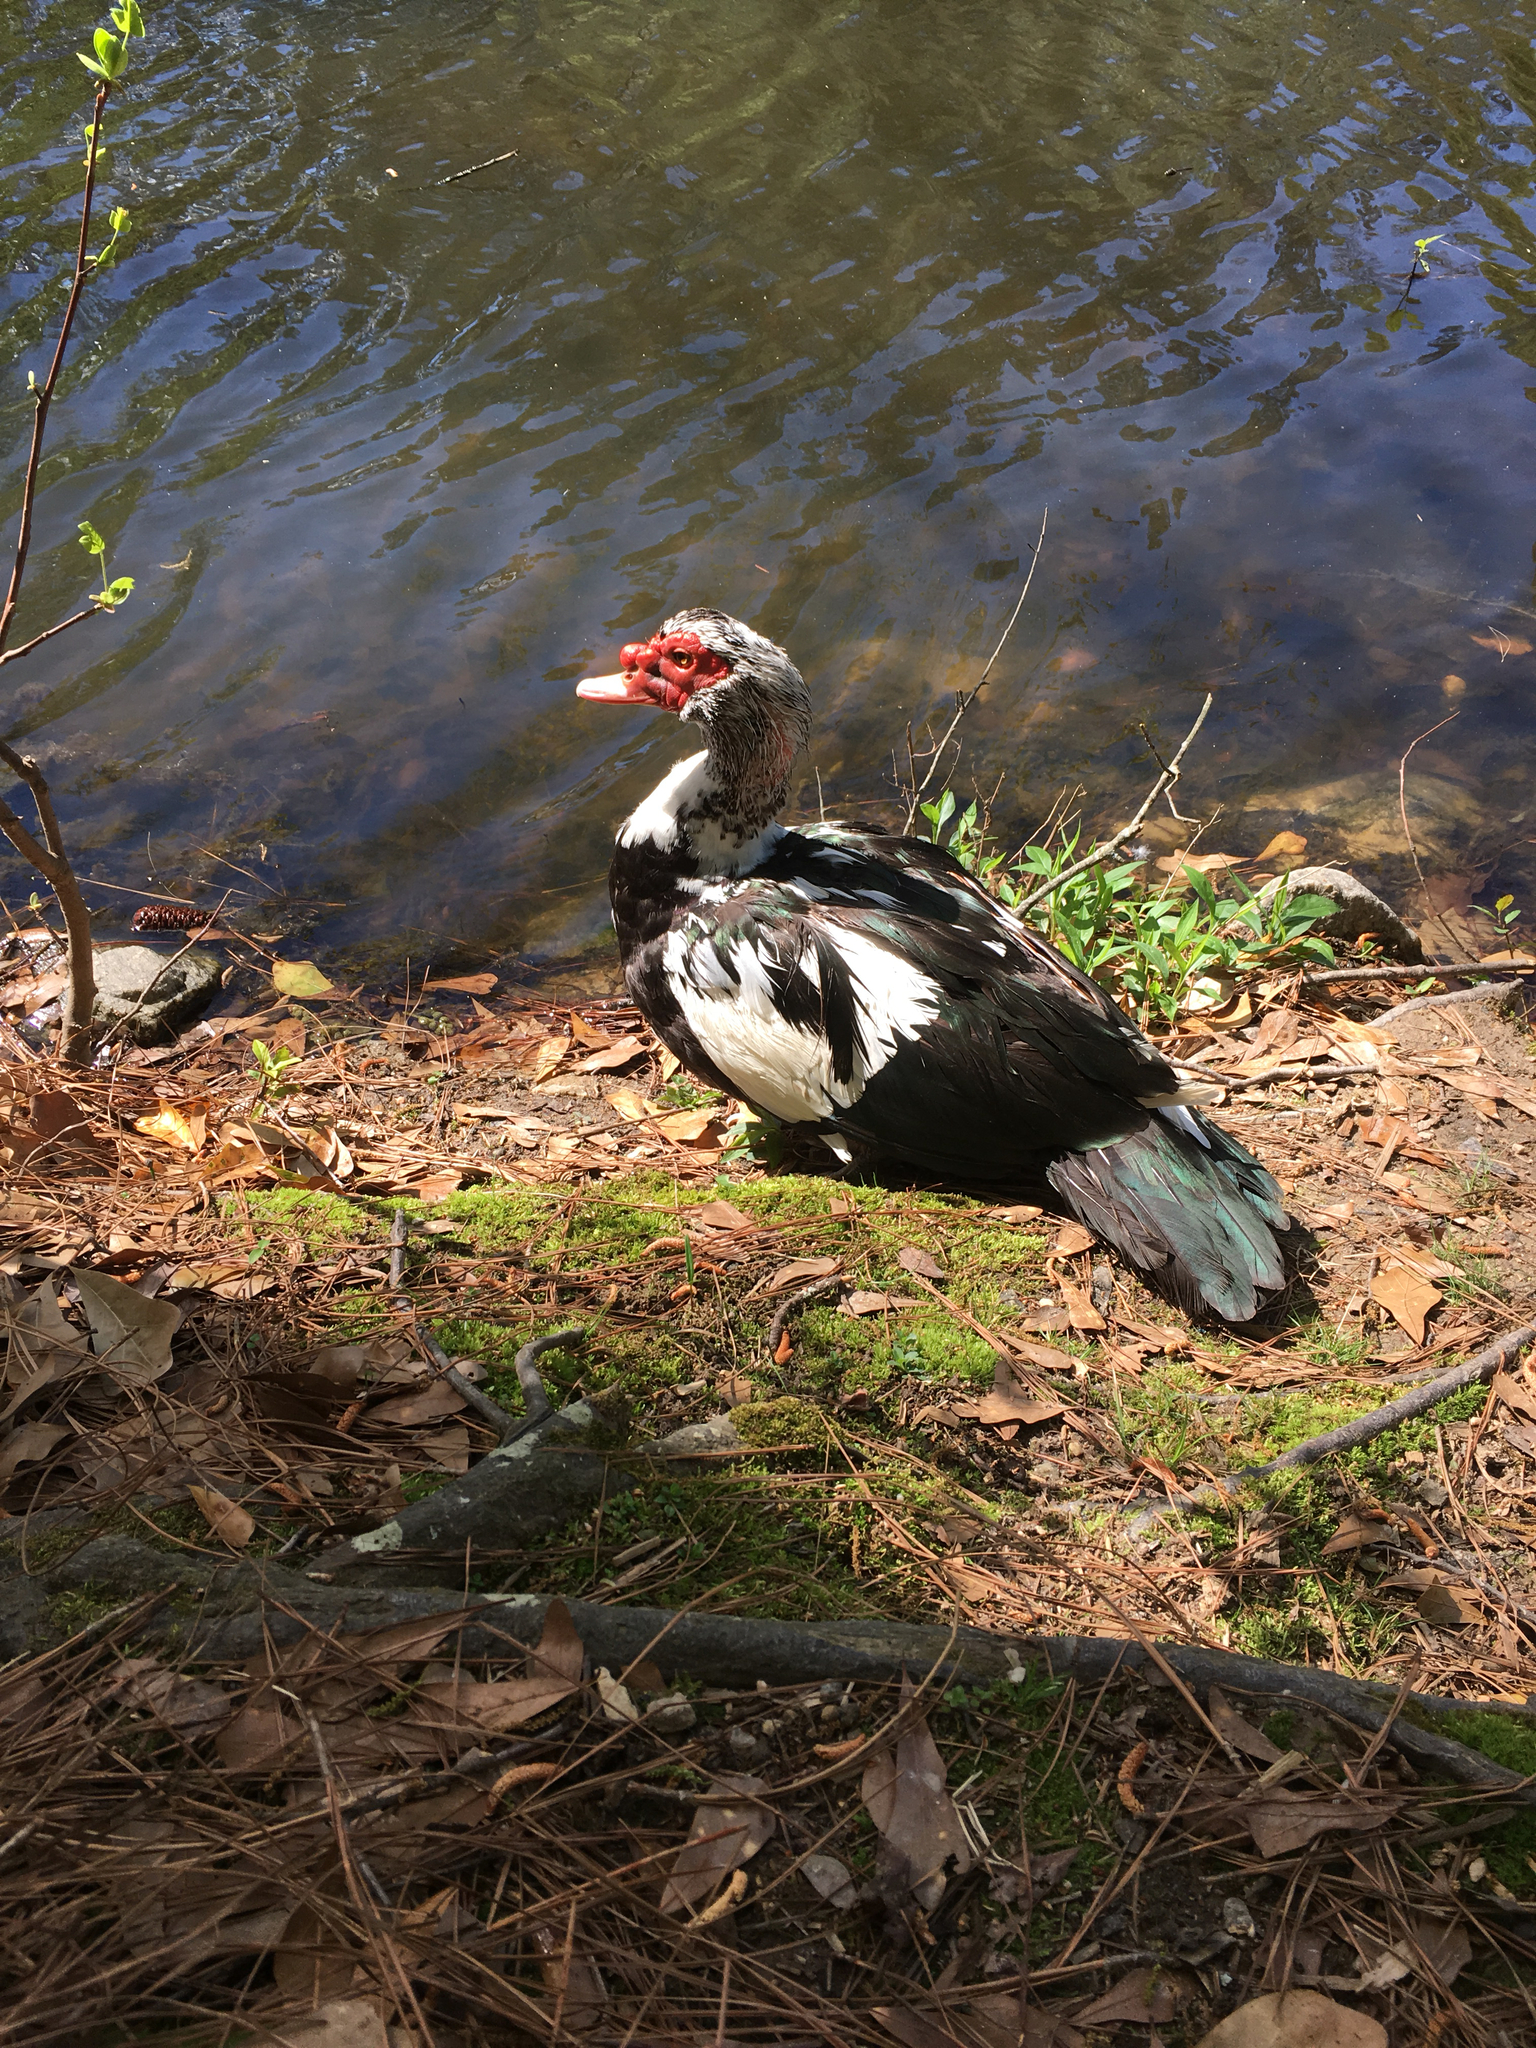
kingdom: Animalia
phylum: Chordata
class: Aves
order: Anseriformes
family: Anatidae
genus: Cairina
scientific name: Cairina moschata
